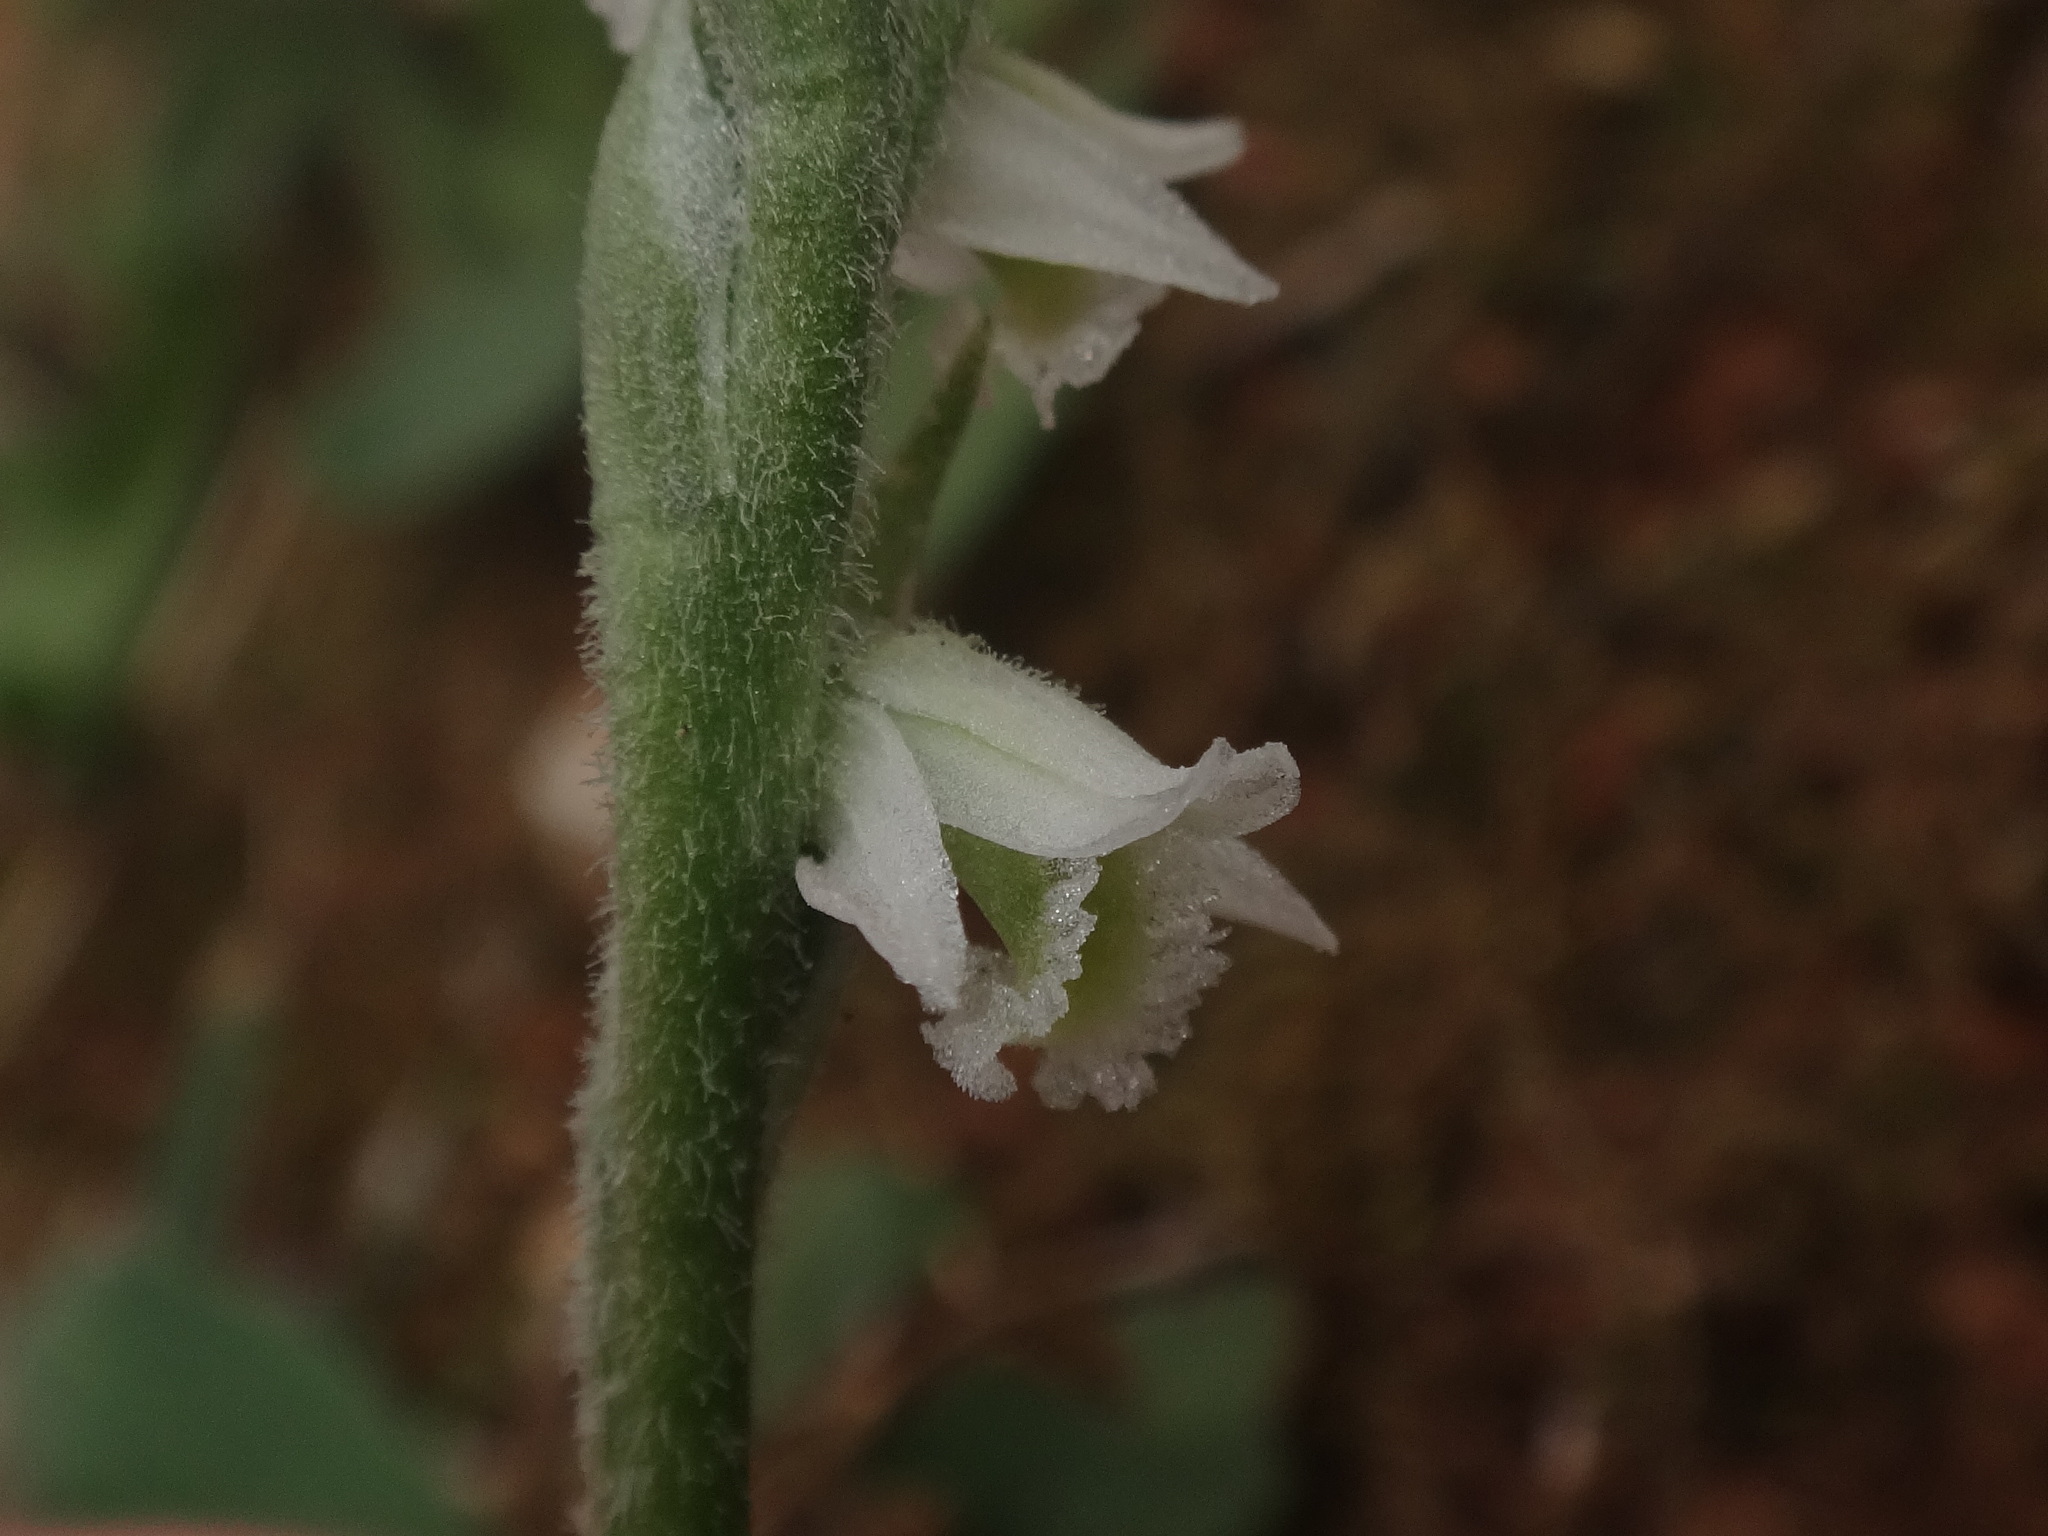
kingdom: Plantae
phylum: Tracheophyta
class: Liliopsida
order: Asparagales
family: Orchidaceae
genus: Spiranthes
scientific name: Spiranthes spiralis
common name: Autumn lady's-tresses
